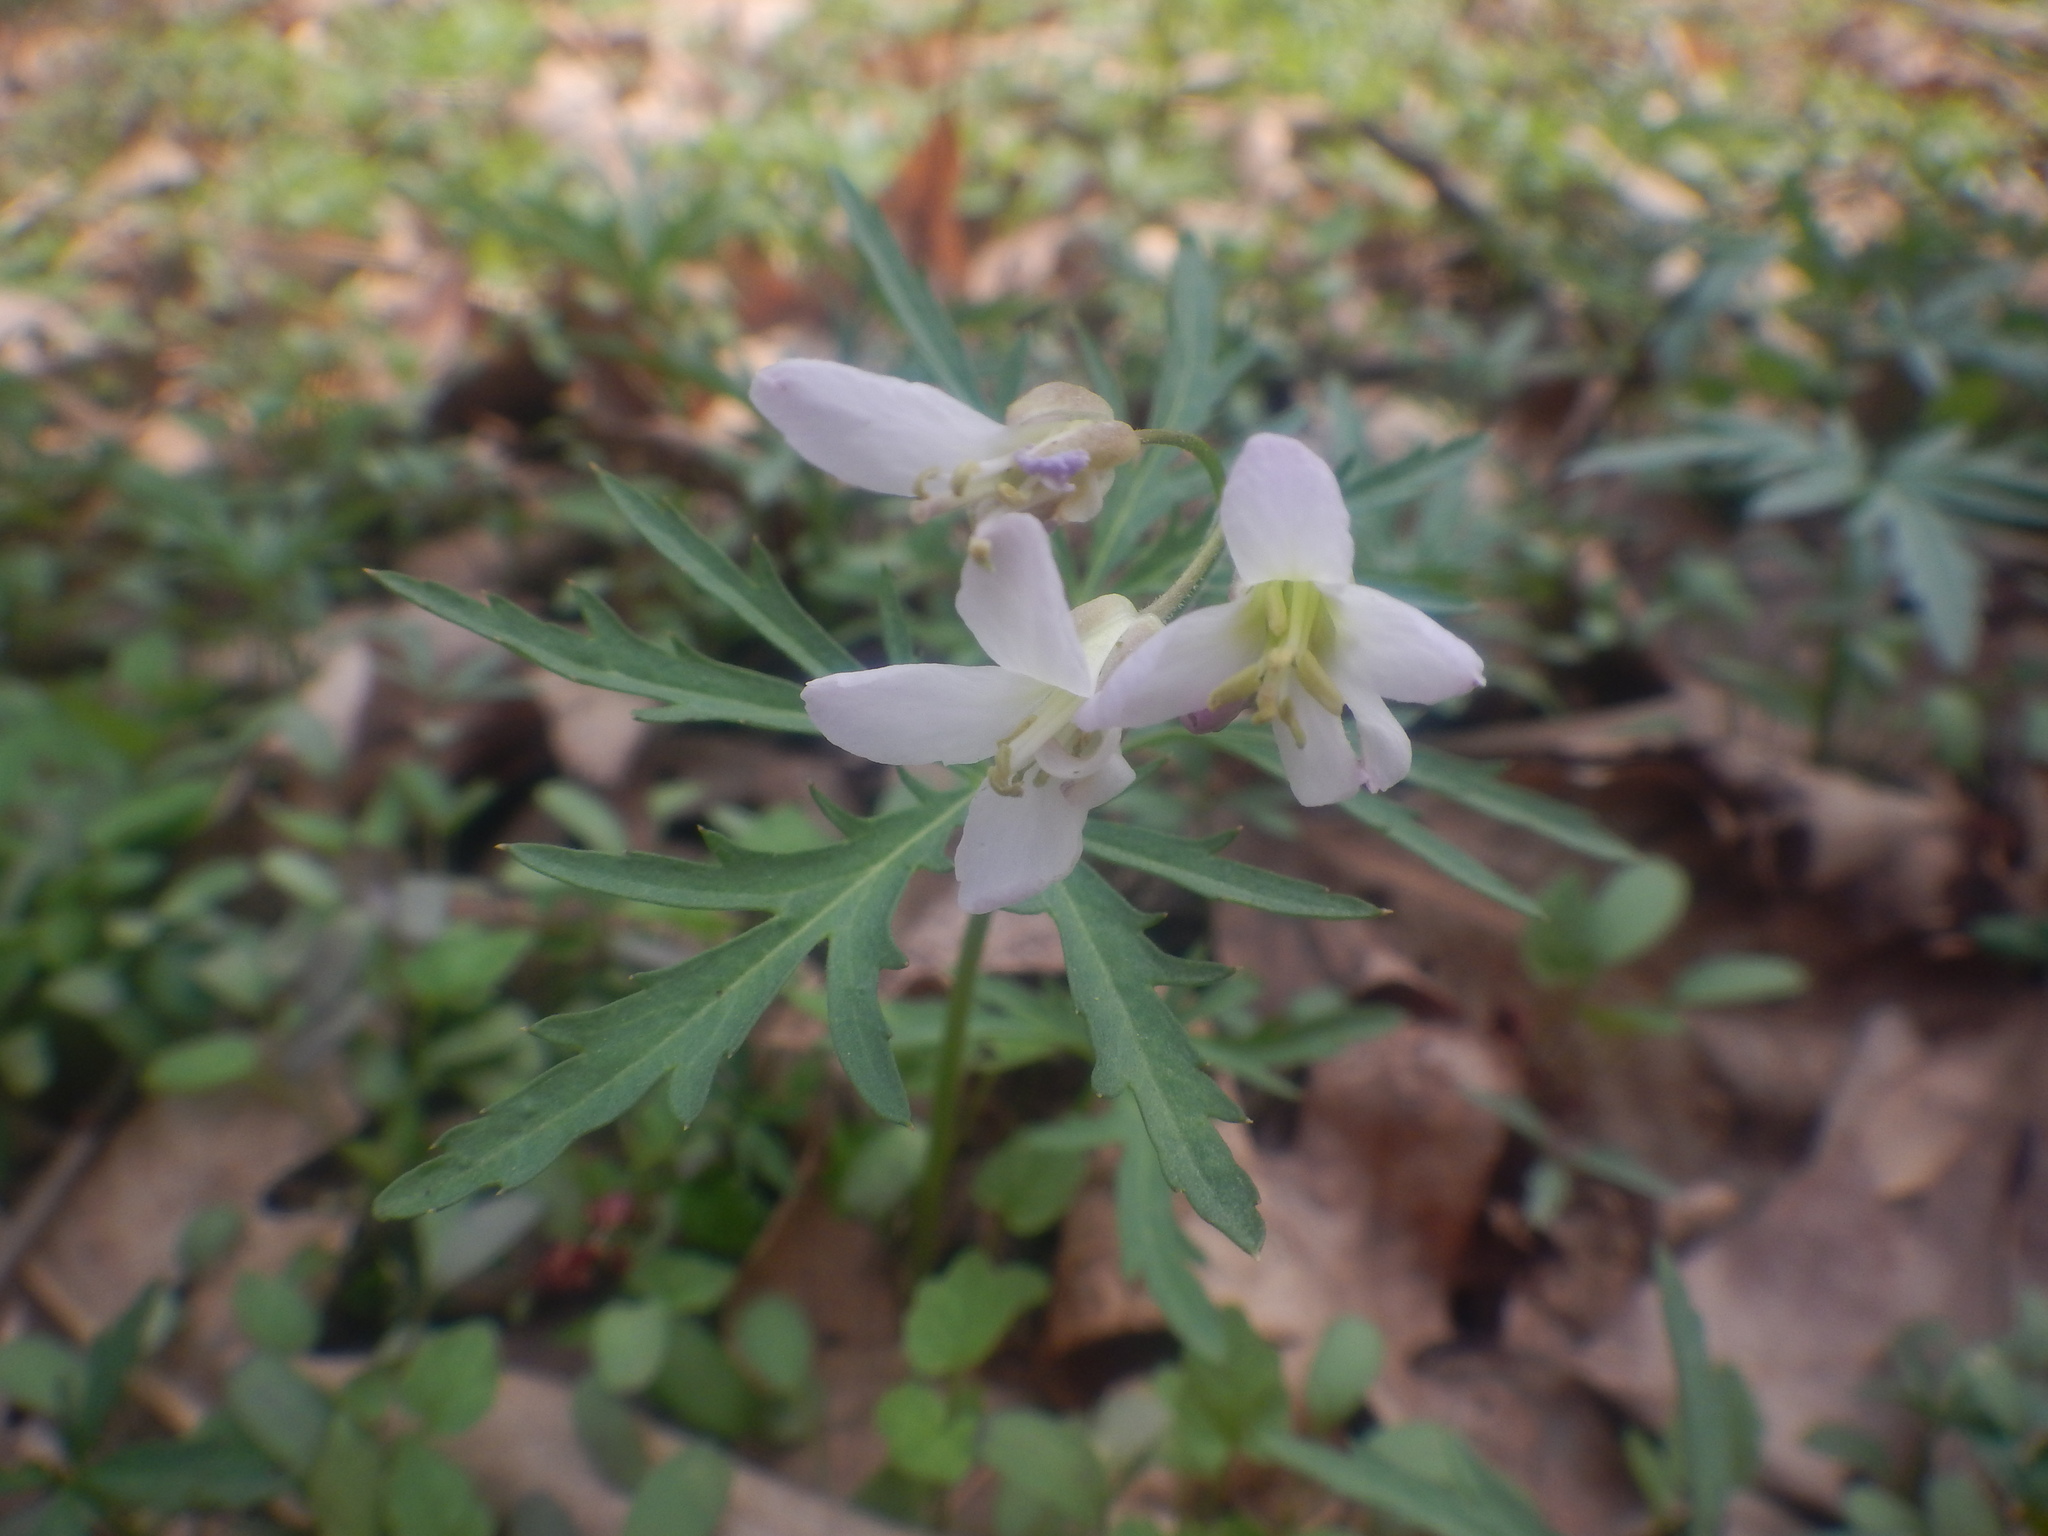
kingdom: Plantae
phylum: Tracheophyta
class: Magnoliopsida
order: Brassicales
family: Brassicaceae
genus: Cardamine
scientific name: Cardamine concatenata
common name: Cut-leaf toothcup
